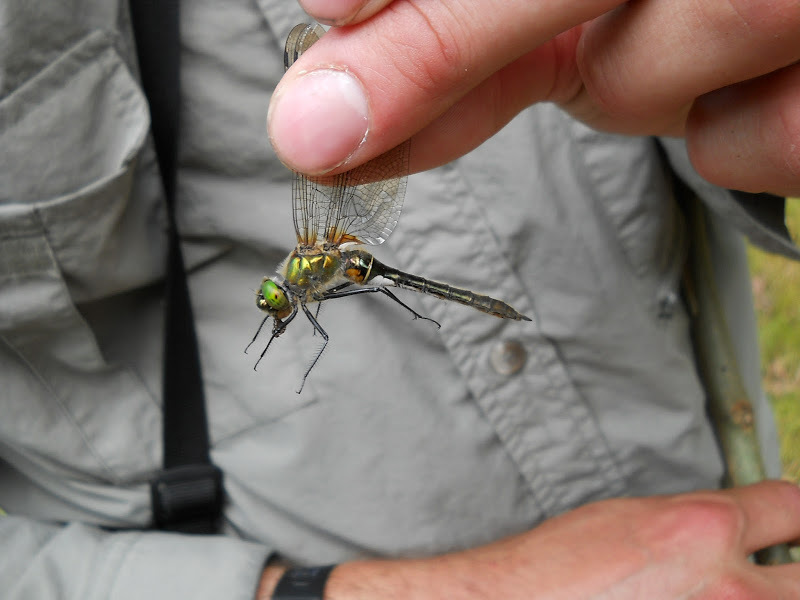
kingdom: Animalia
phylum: Arthropoda
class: Insecta
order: Odonata
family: Corduliidae
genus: Cordulia
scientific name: Cordulia aenea
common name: Downy emerald
